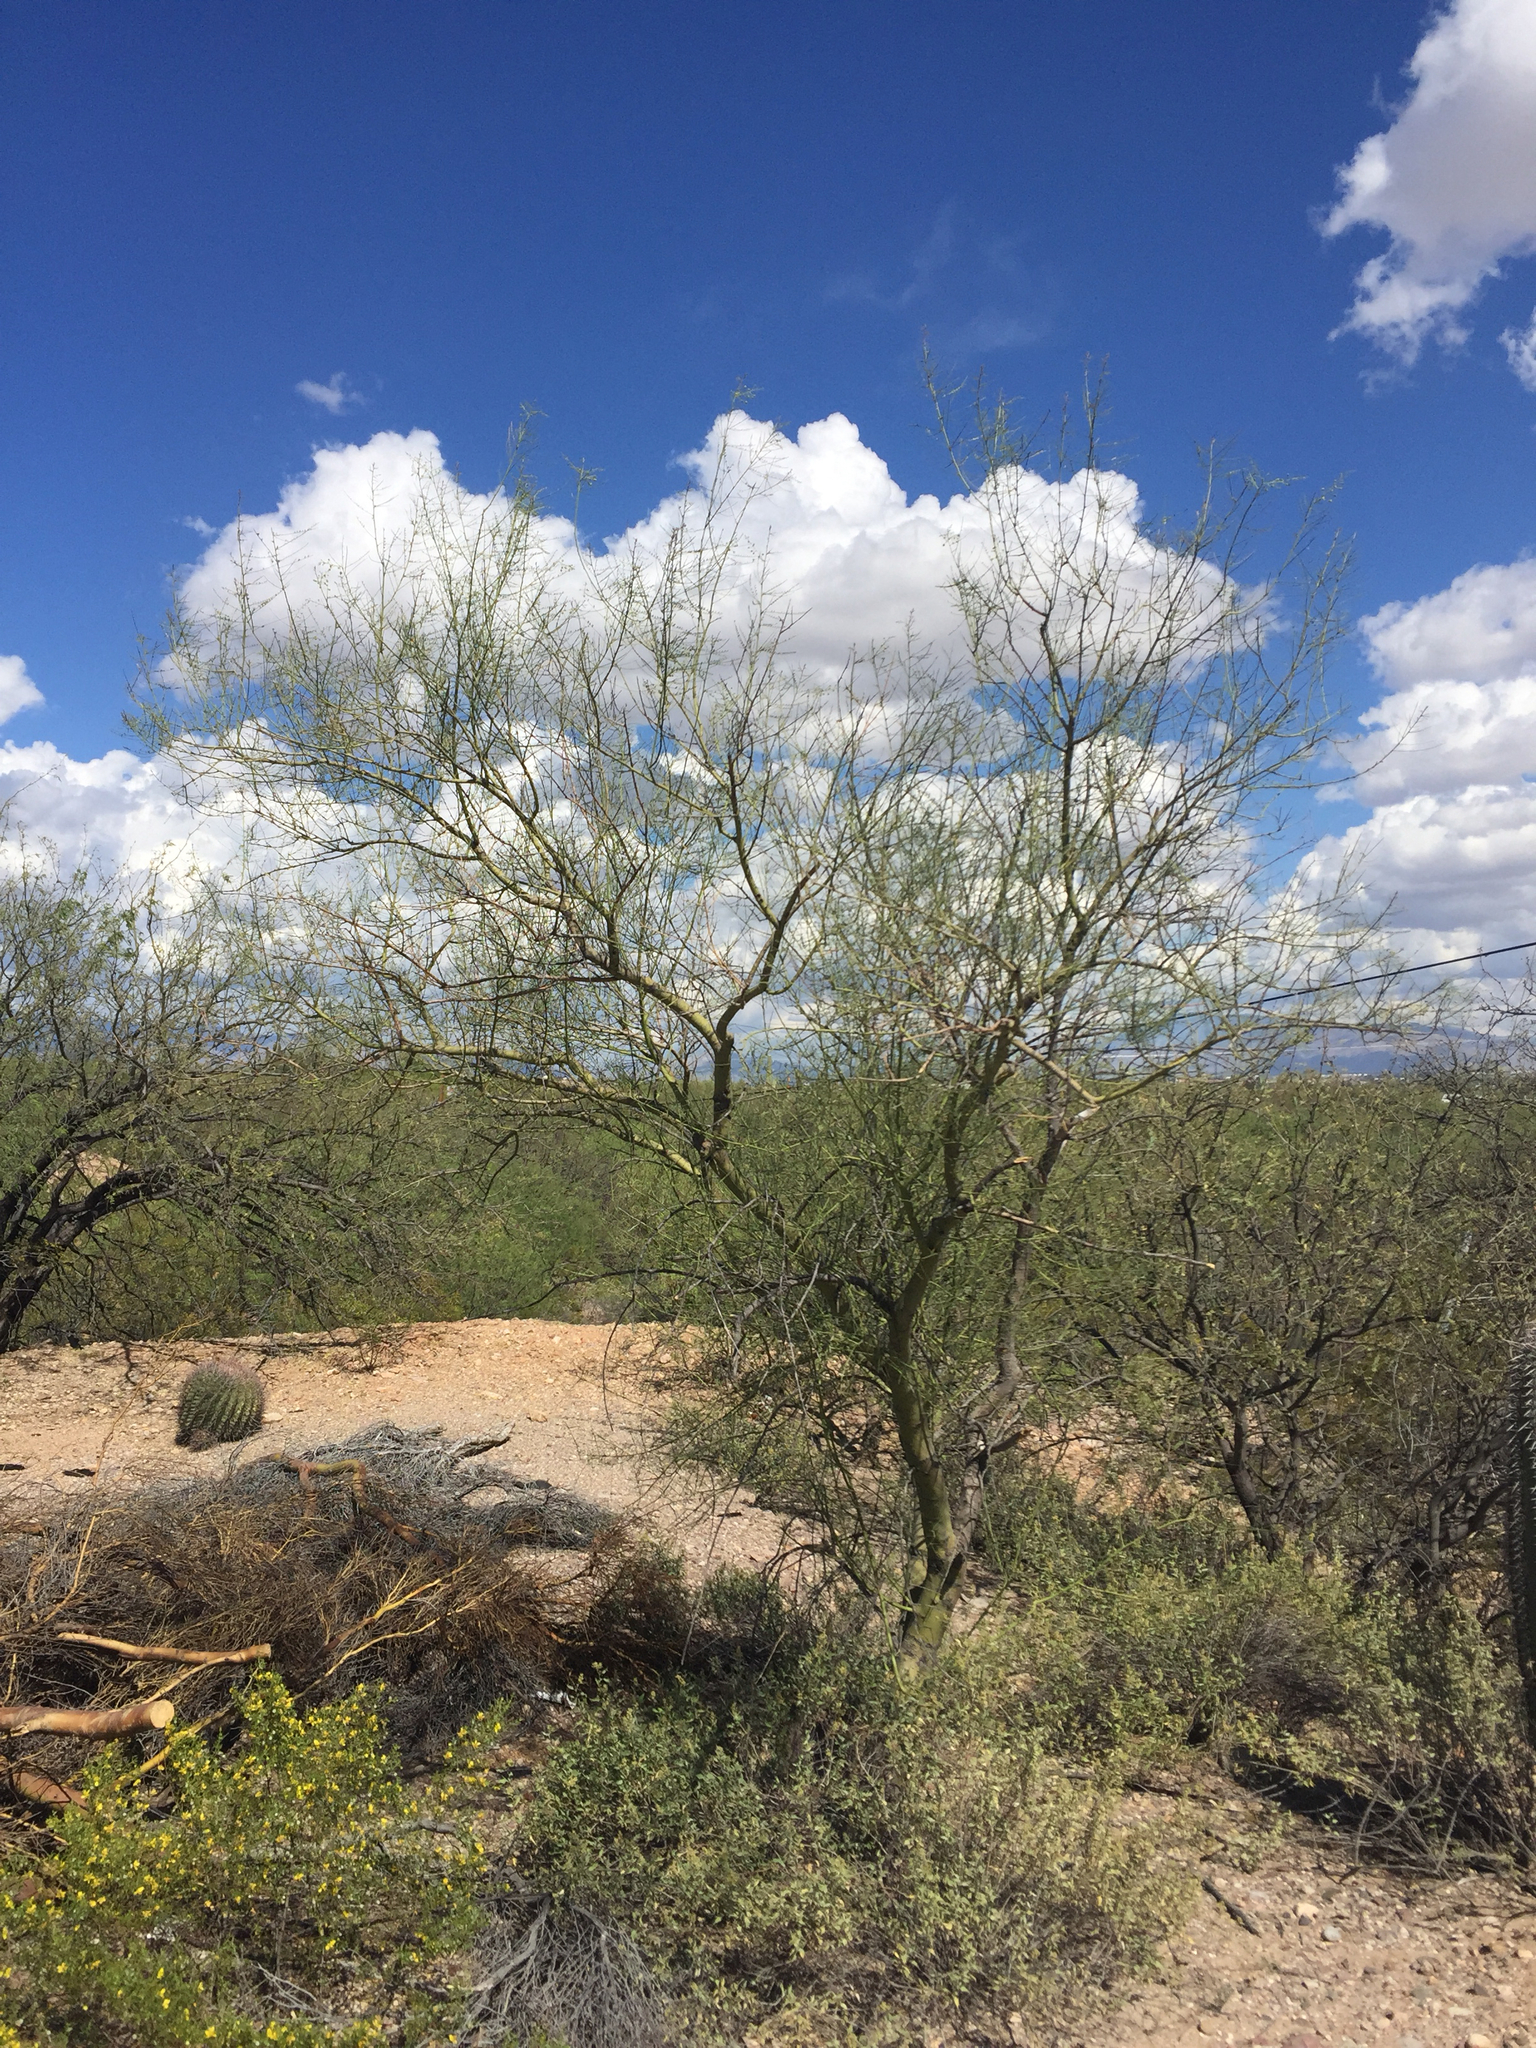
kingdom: Plantae
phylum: Tracheophyta
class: Magnoliopsida
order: Fabales
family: Fabaceae
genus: Parkinsonia
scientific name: Parkinsonia microphylla
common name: Yellow paloverde
